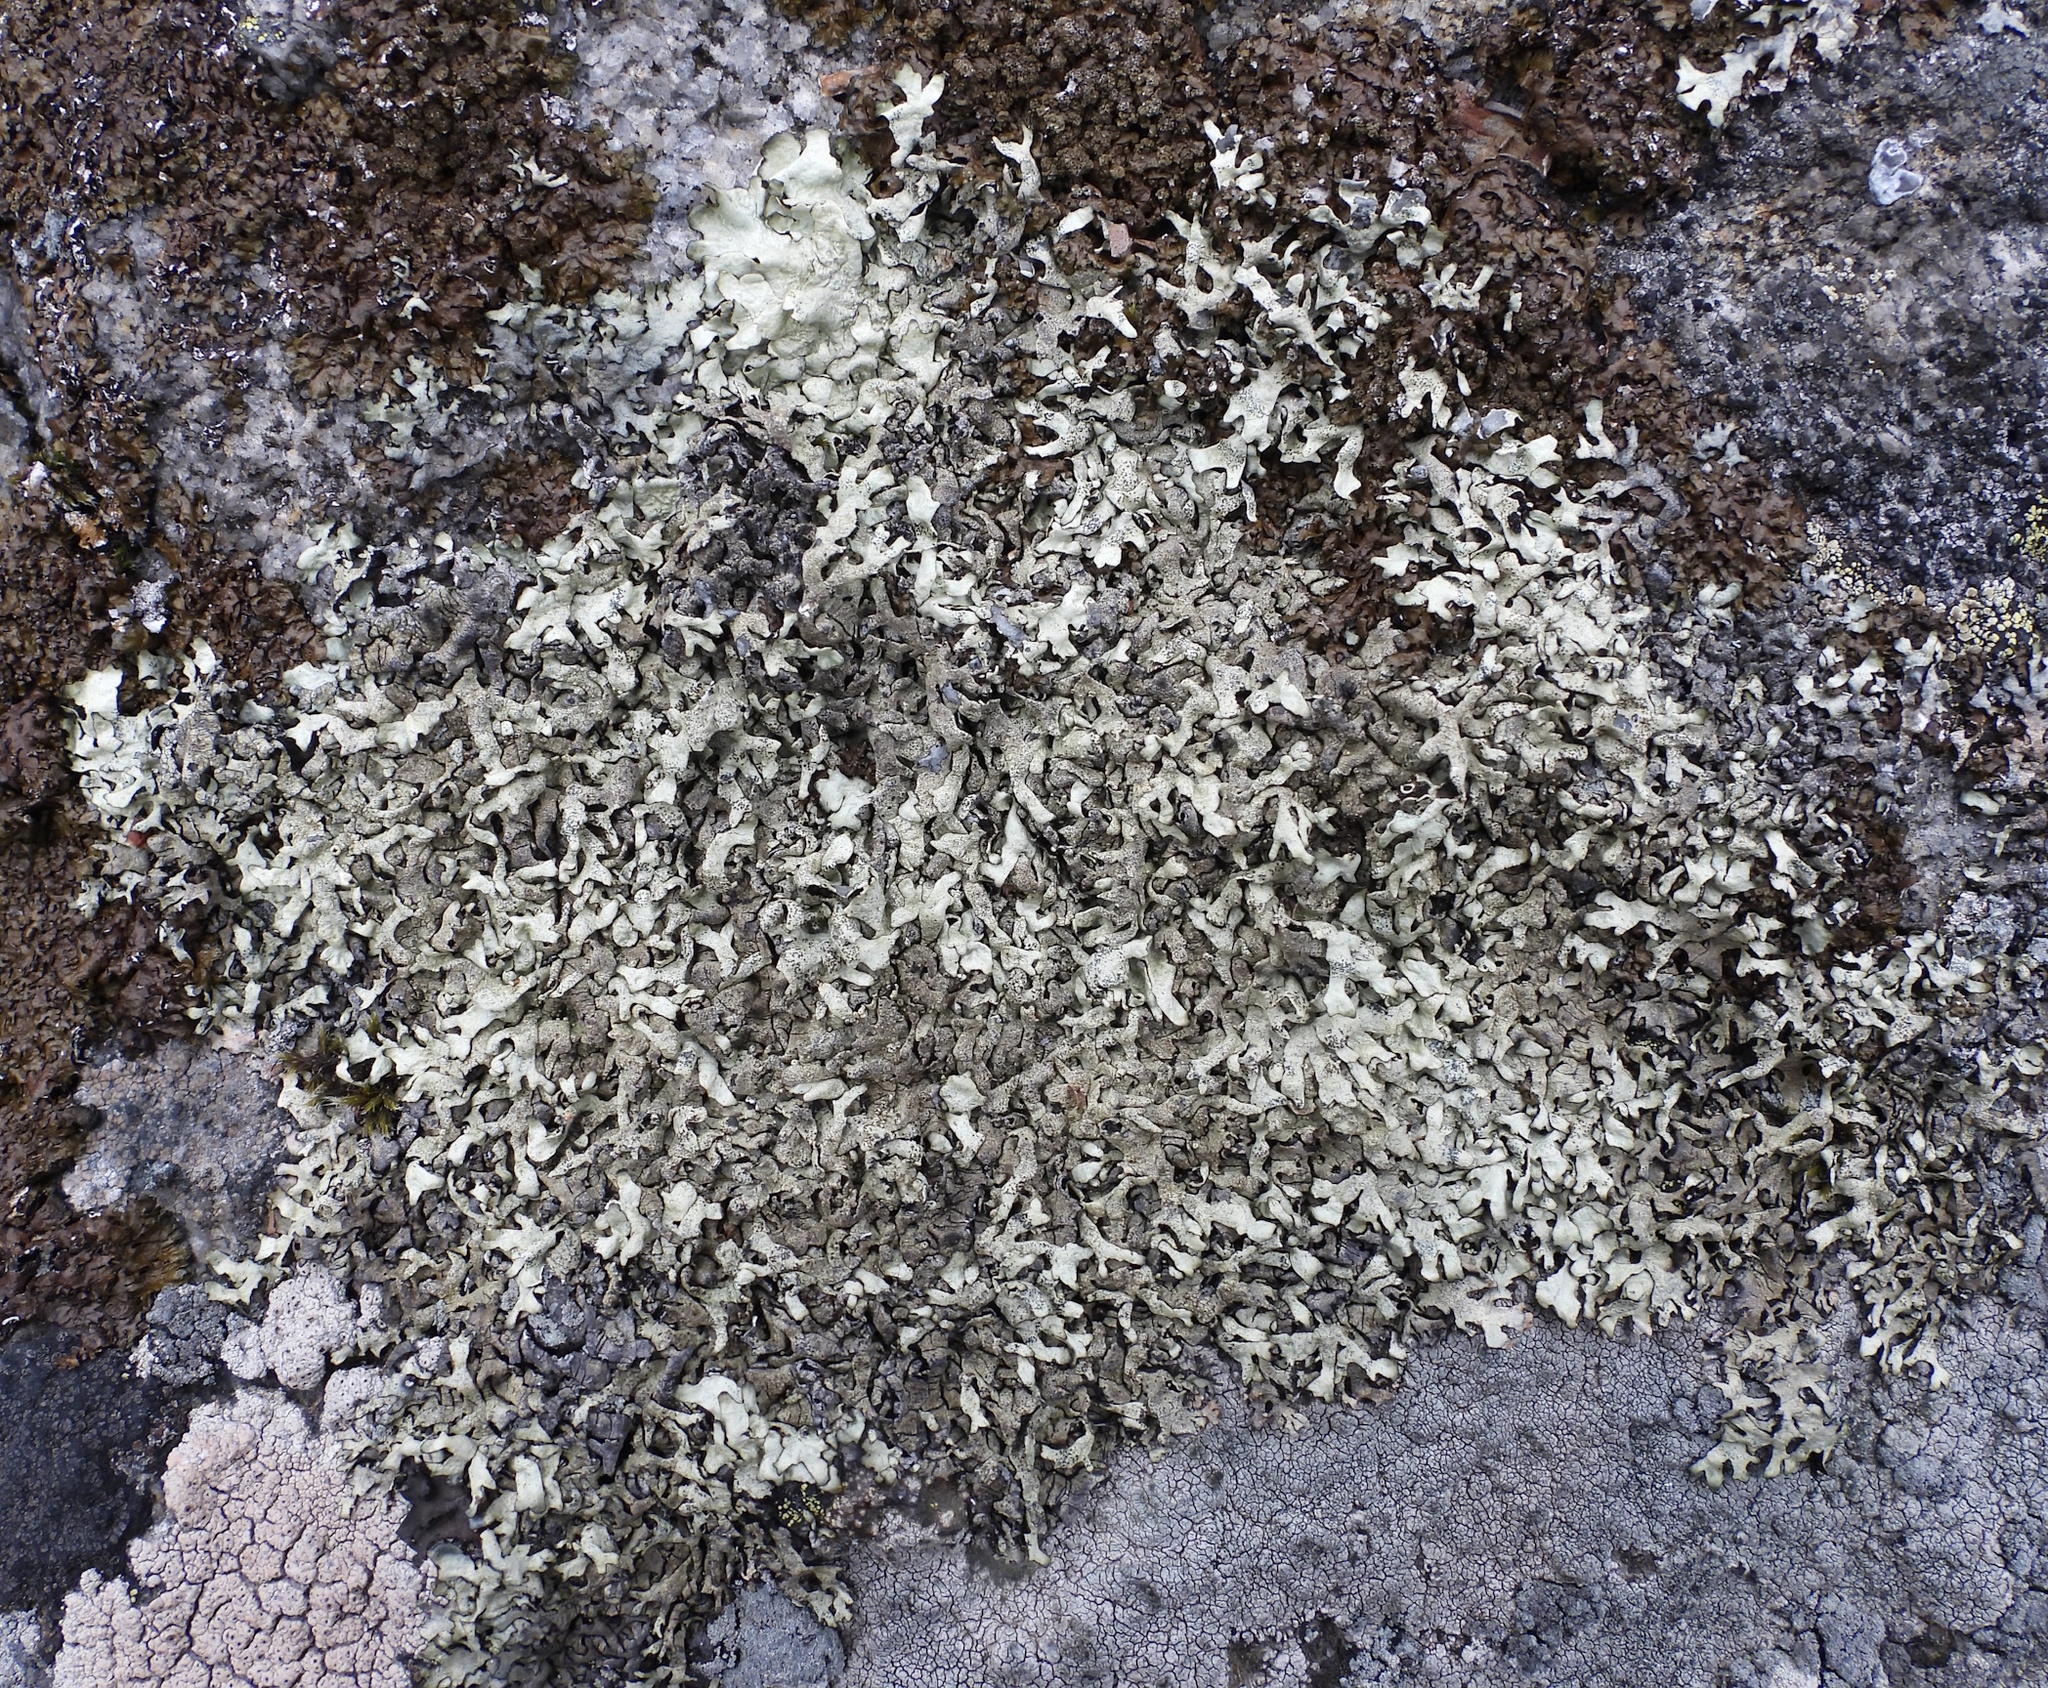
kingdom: Fungi
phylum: Ascomycota
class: Lecanoromycetes
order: Lecanorales
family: Parmeliaceae
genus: Xanthoparmelia
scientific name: Xanthoparmelia stenophylla
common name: Shingled rock shield
